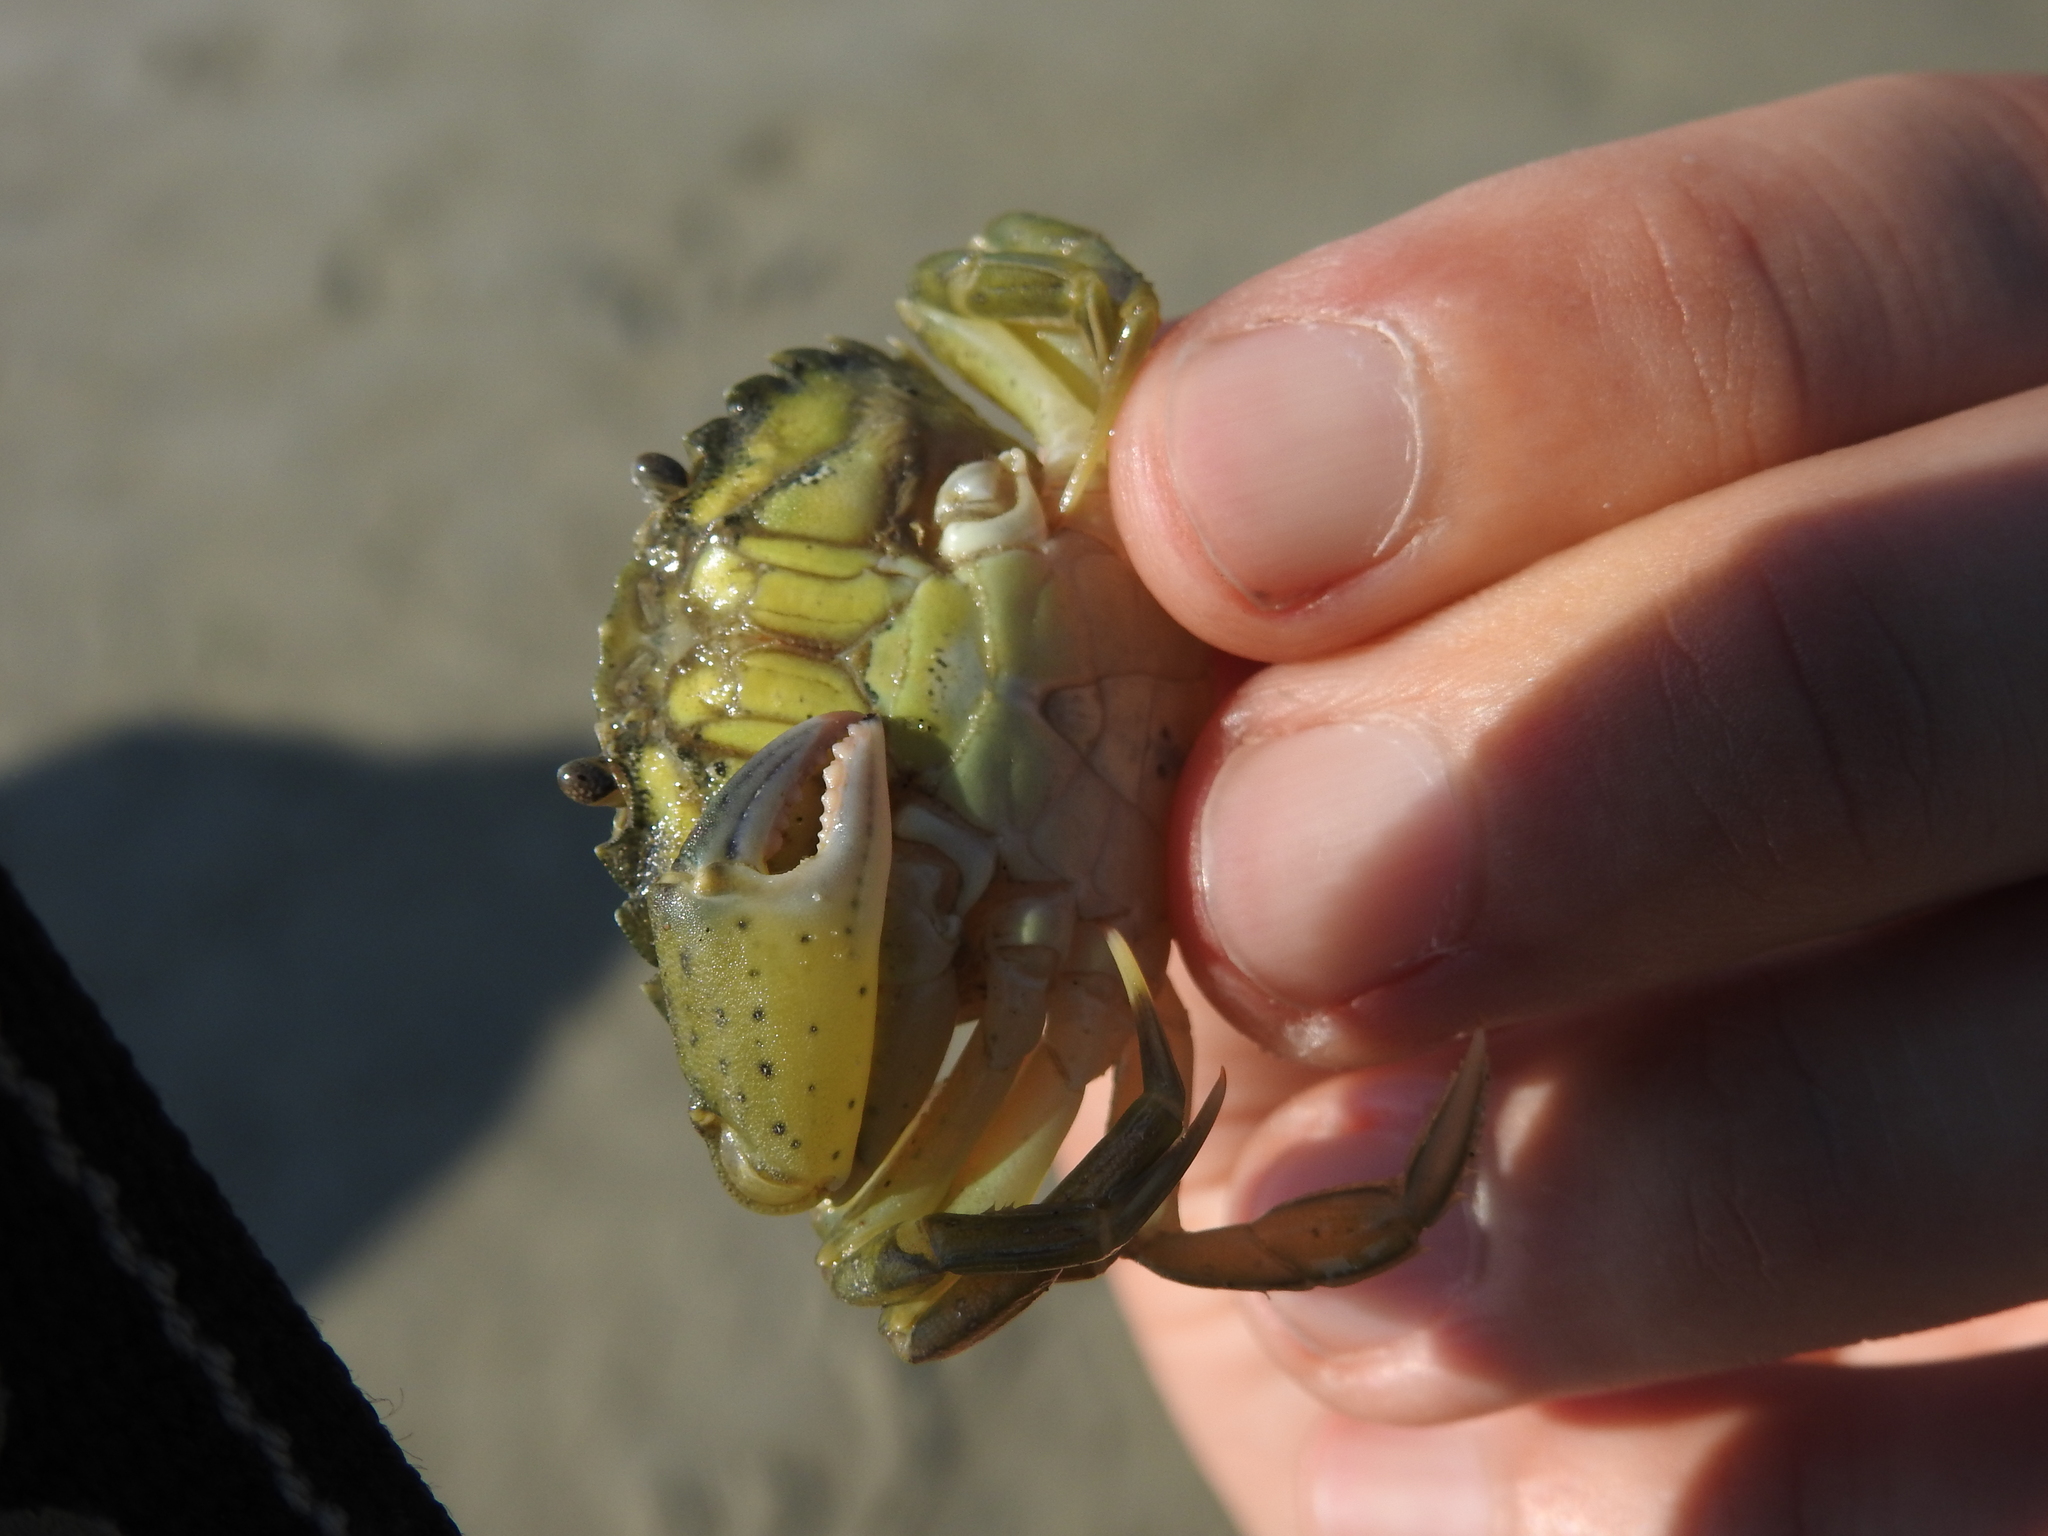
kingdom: Animalia
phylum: Arthropoda
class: Malacostraca
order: Decapoda
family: Carcinidae
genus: Carcinus
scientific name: Carcinus maenas
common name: European green crab
